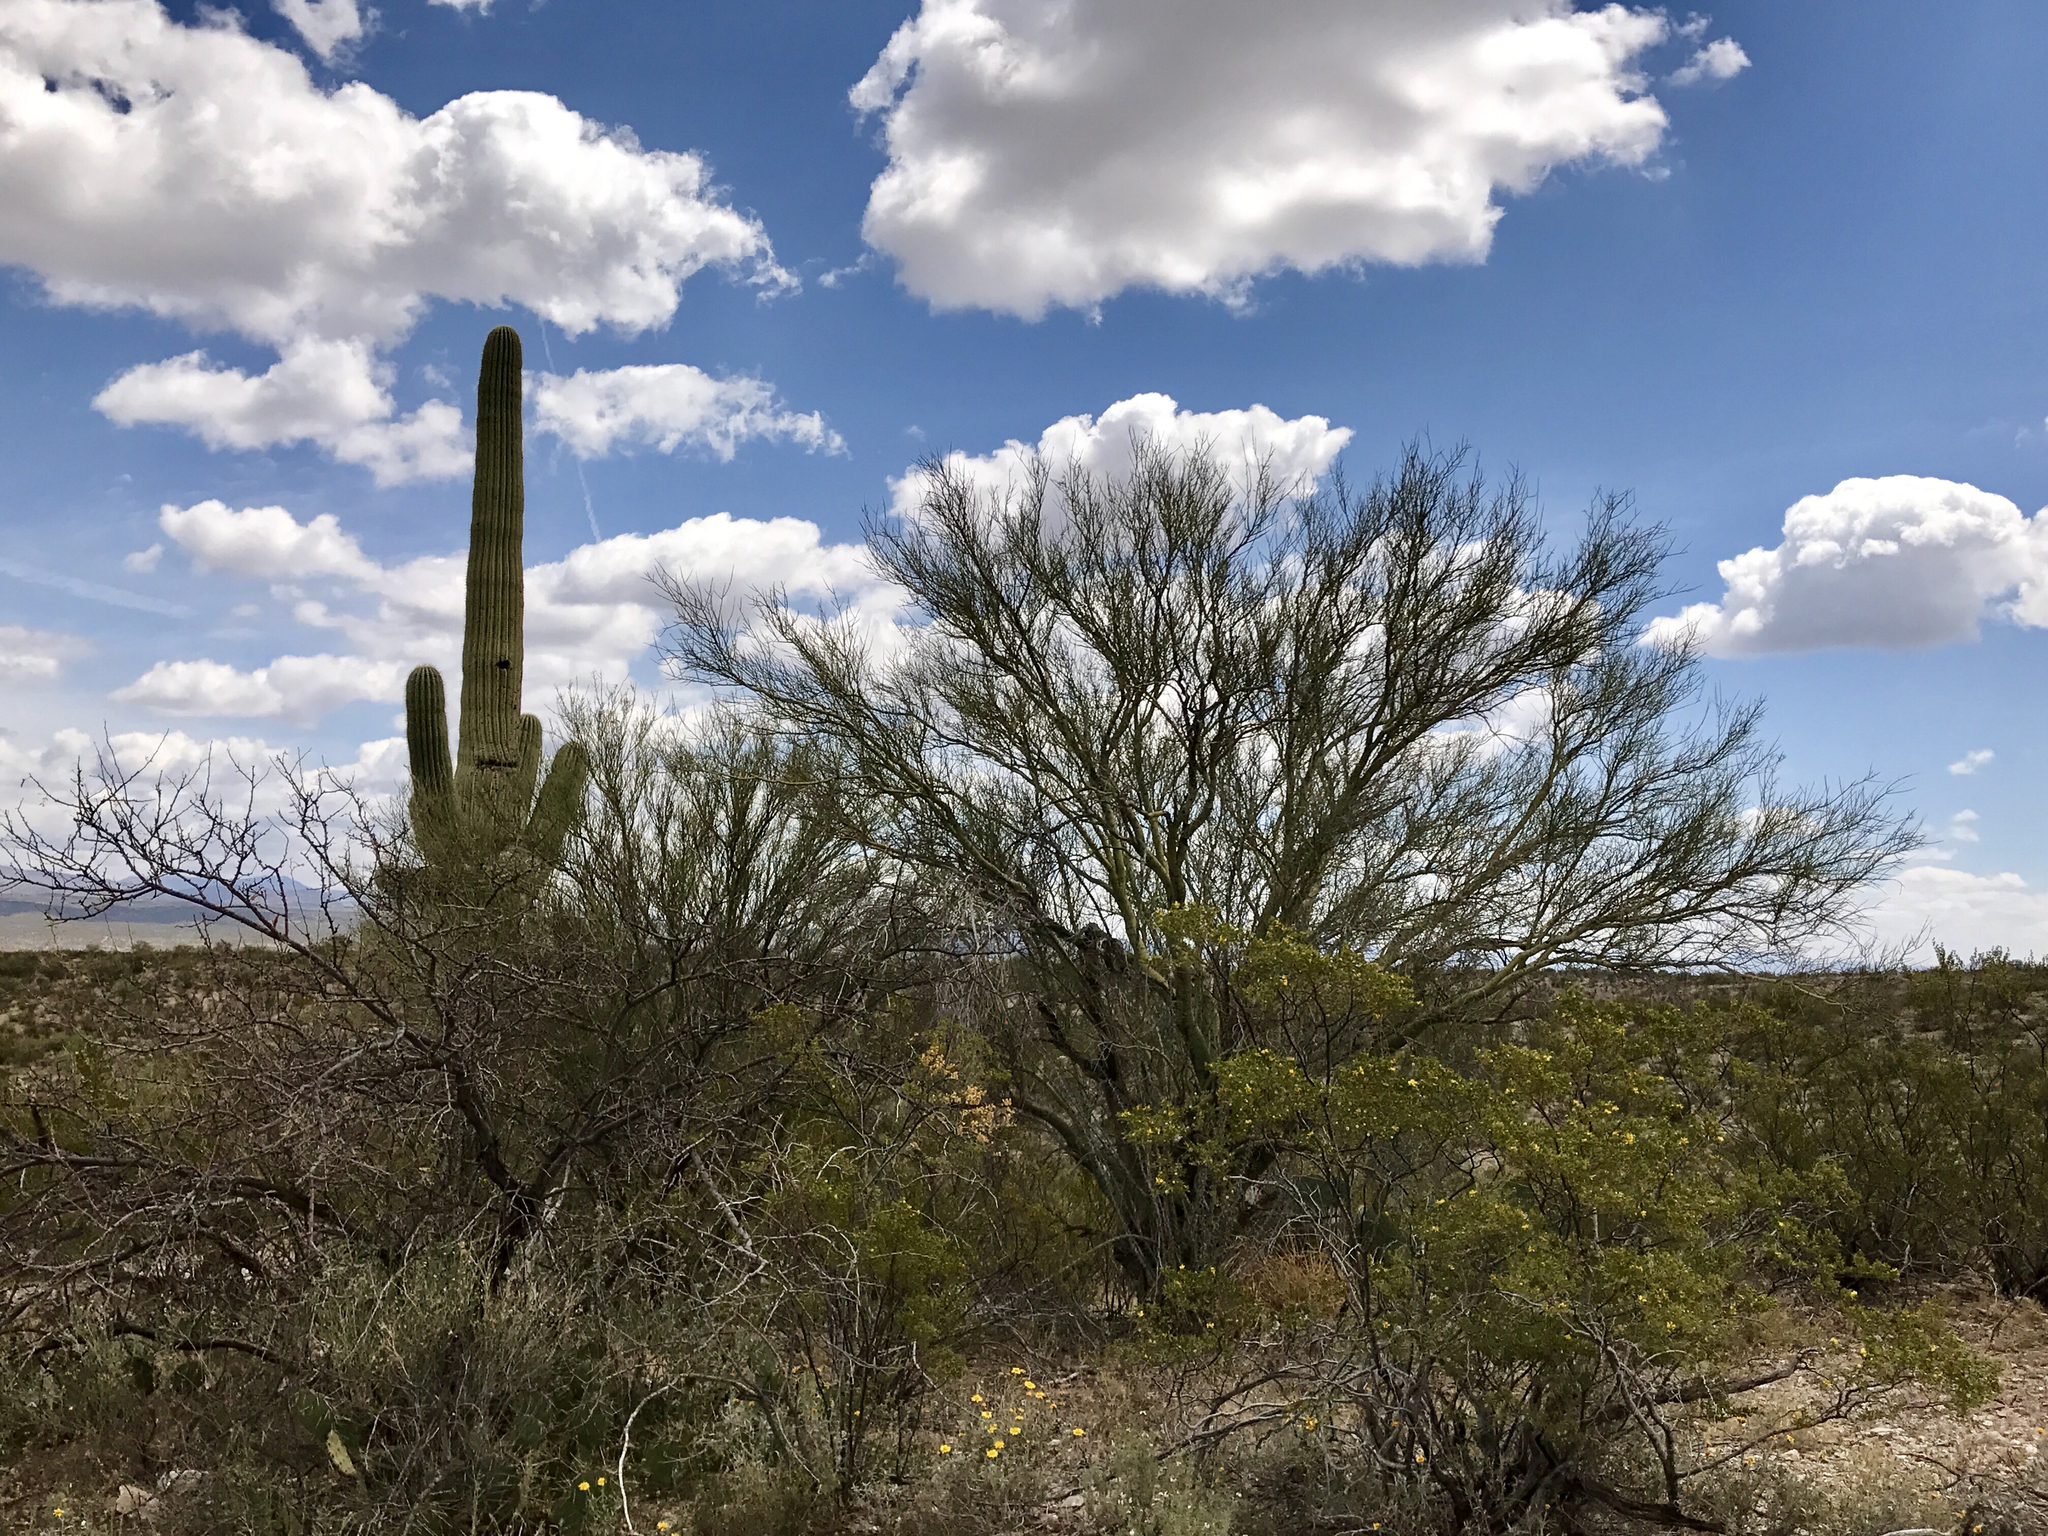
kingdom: Plantae
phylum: Tracheophyta
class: Magnoliopsida
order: Fabales
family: Fabaceae
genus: Parkinsonia
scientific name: Parkinsonia microphylla
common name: Yellow paloverde
